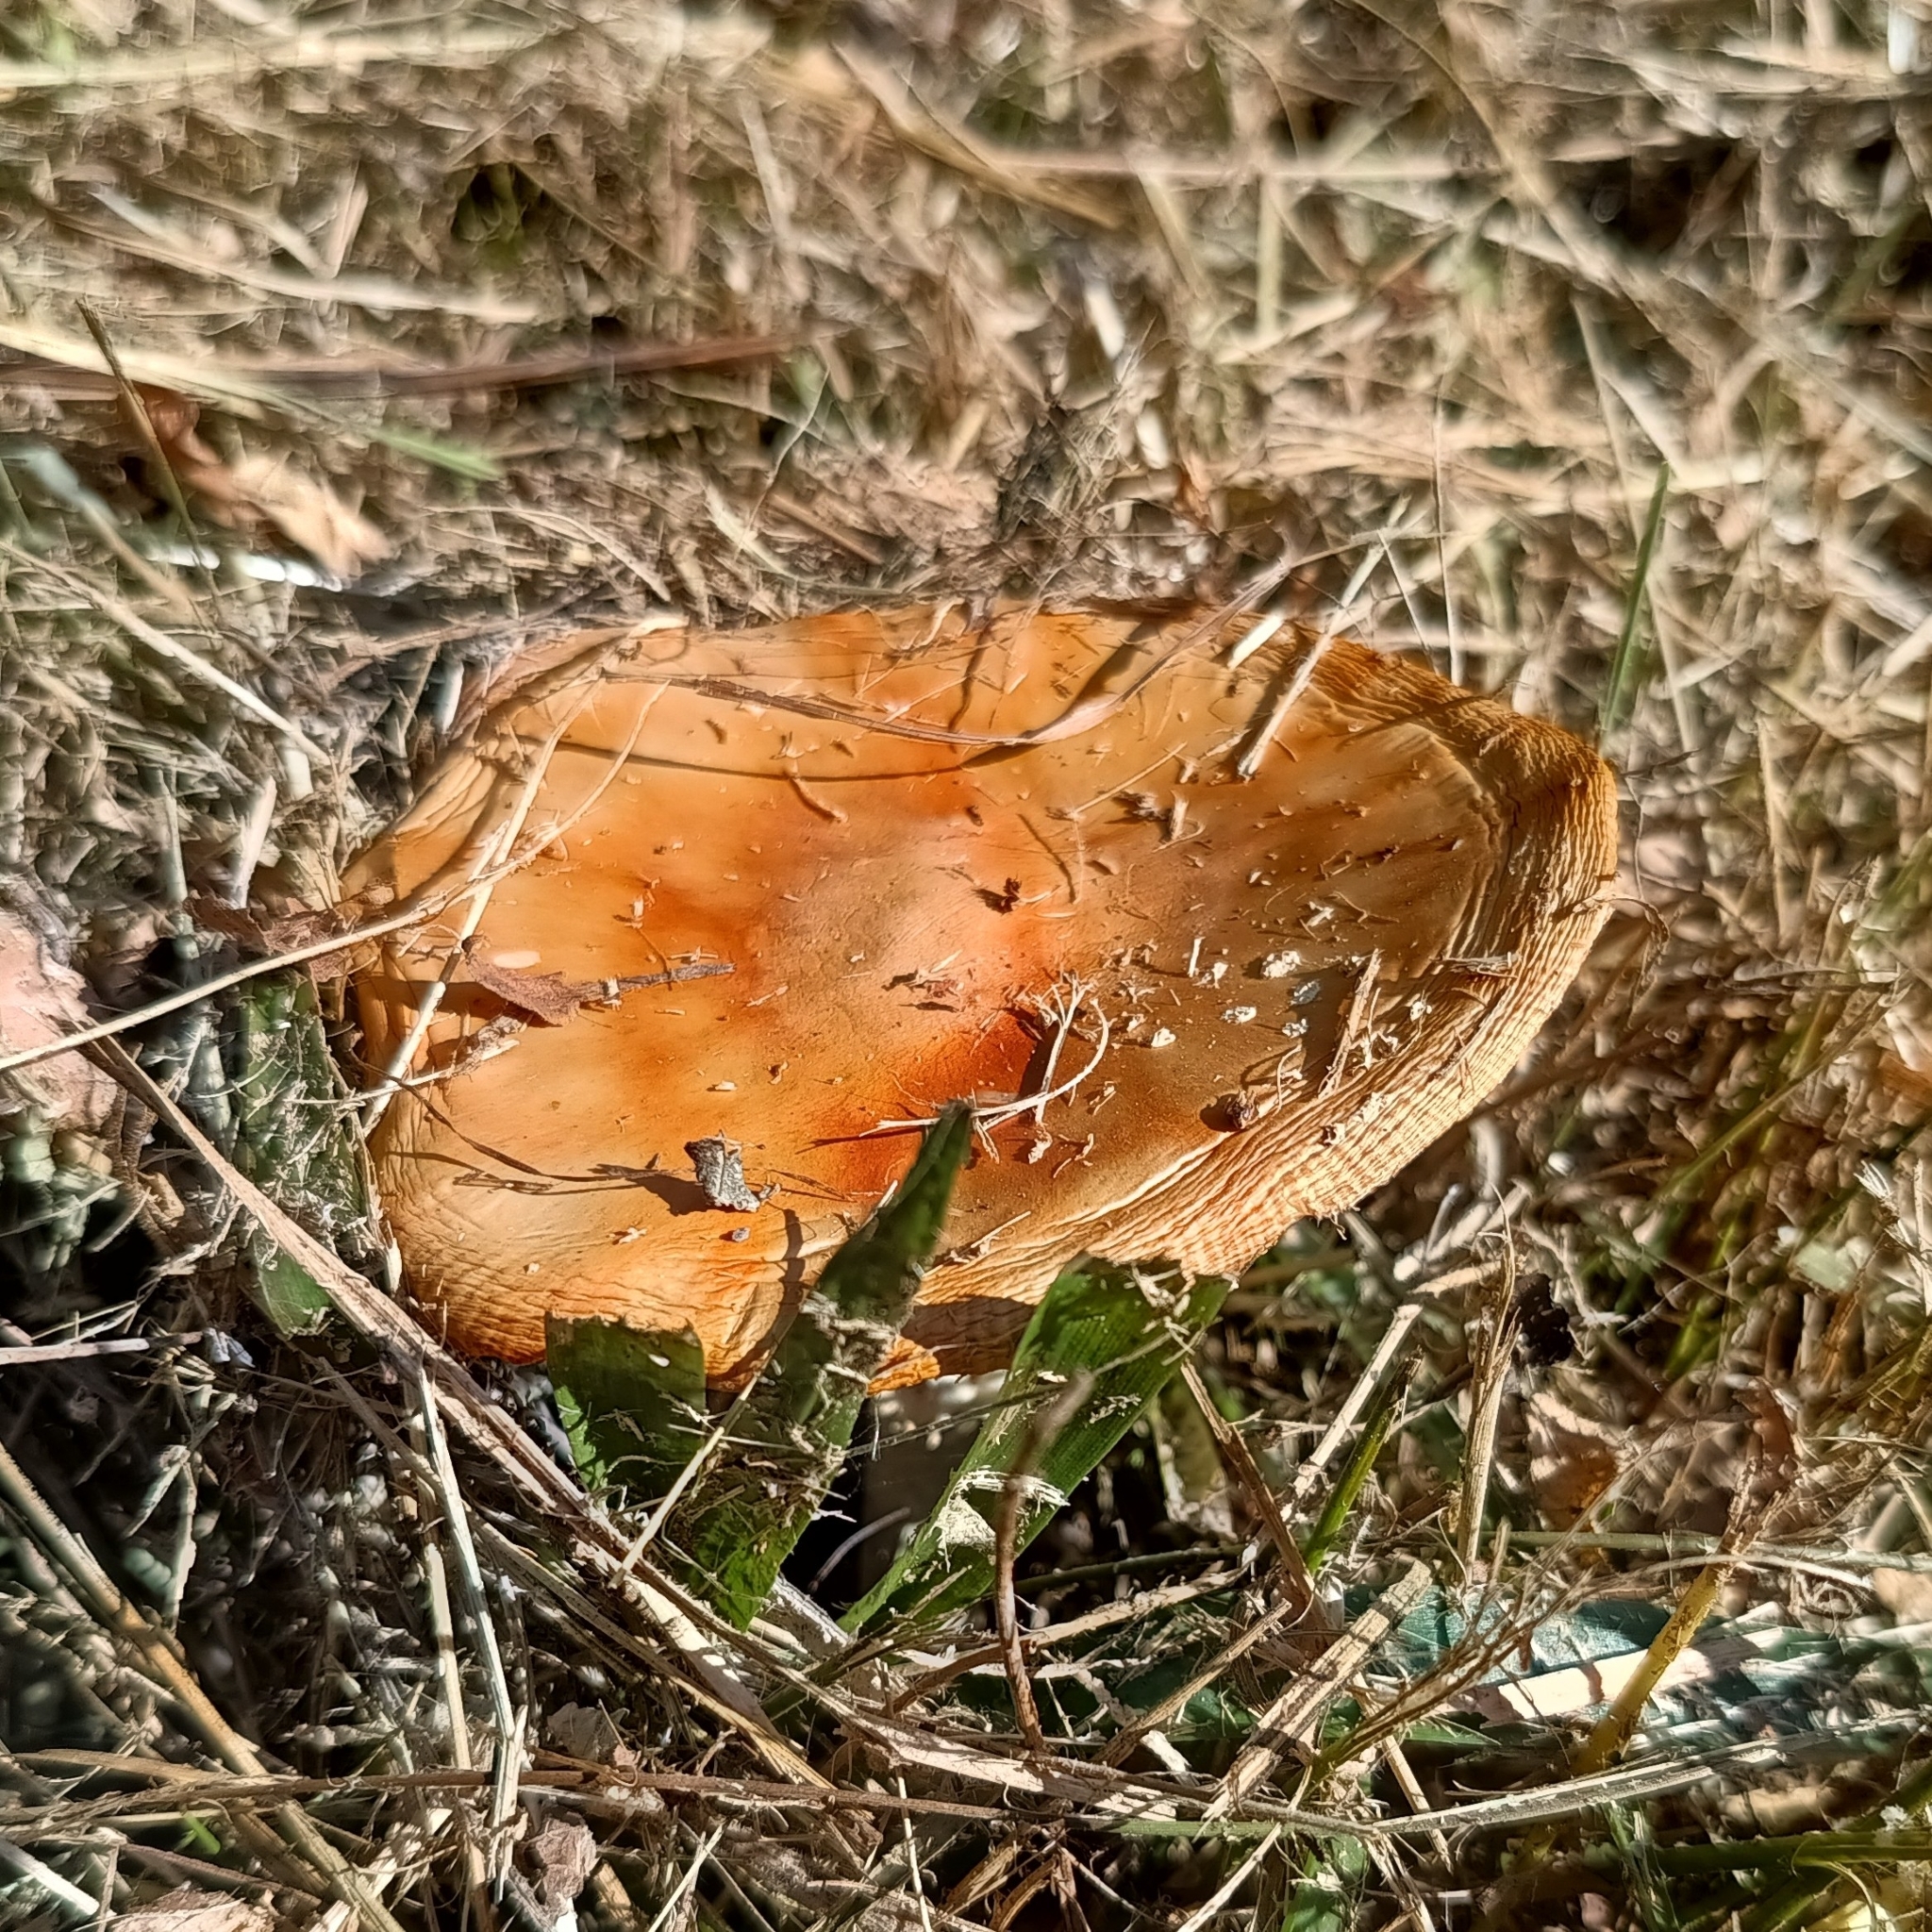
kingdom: Fungi
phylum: Basidiomycota
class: Agaricomycetes
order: Agaricales
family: Amanitaceae
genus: Amanita
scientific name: Amanita muscaria
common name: Fly agaric
